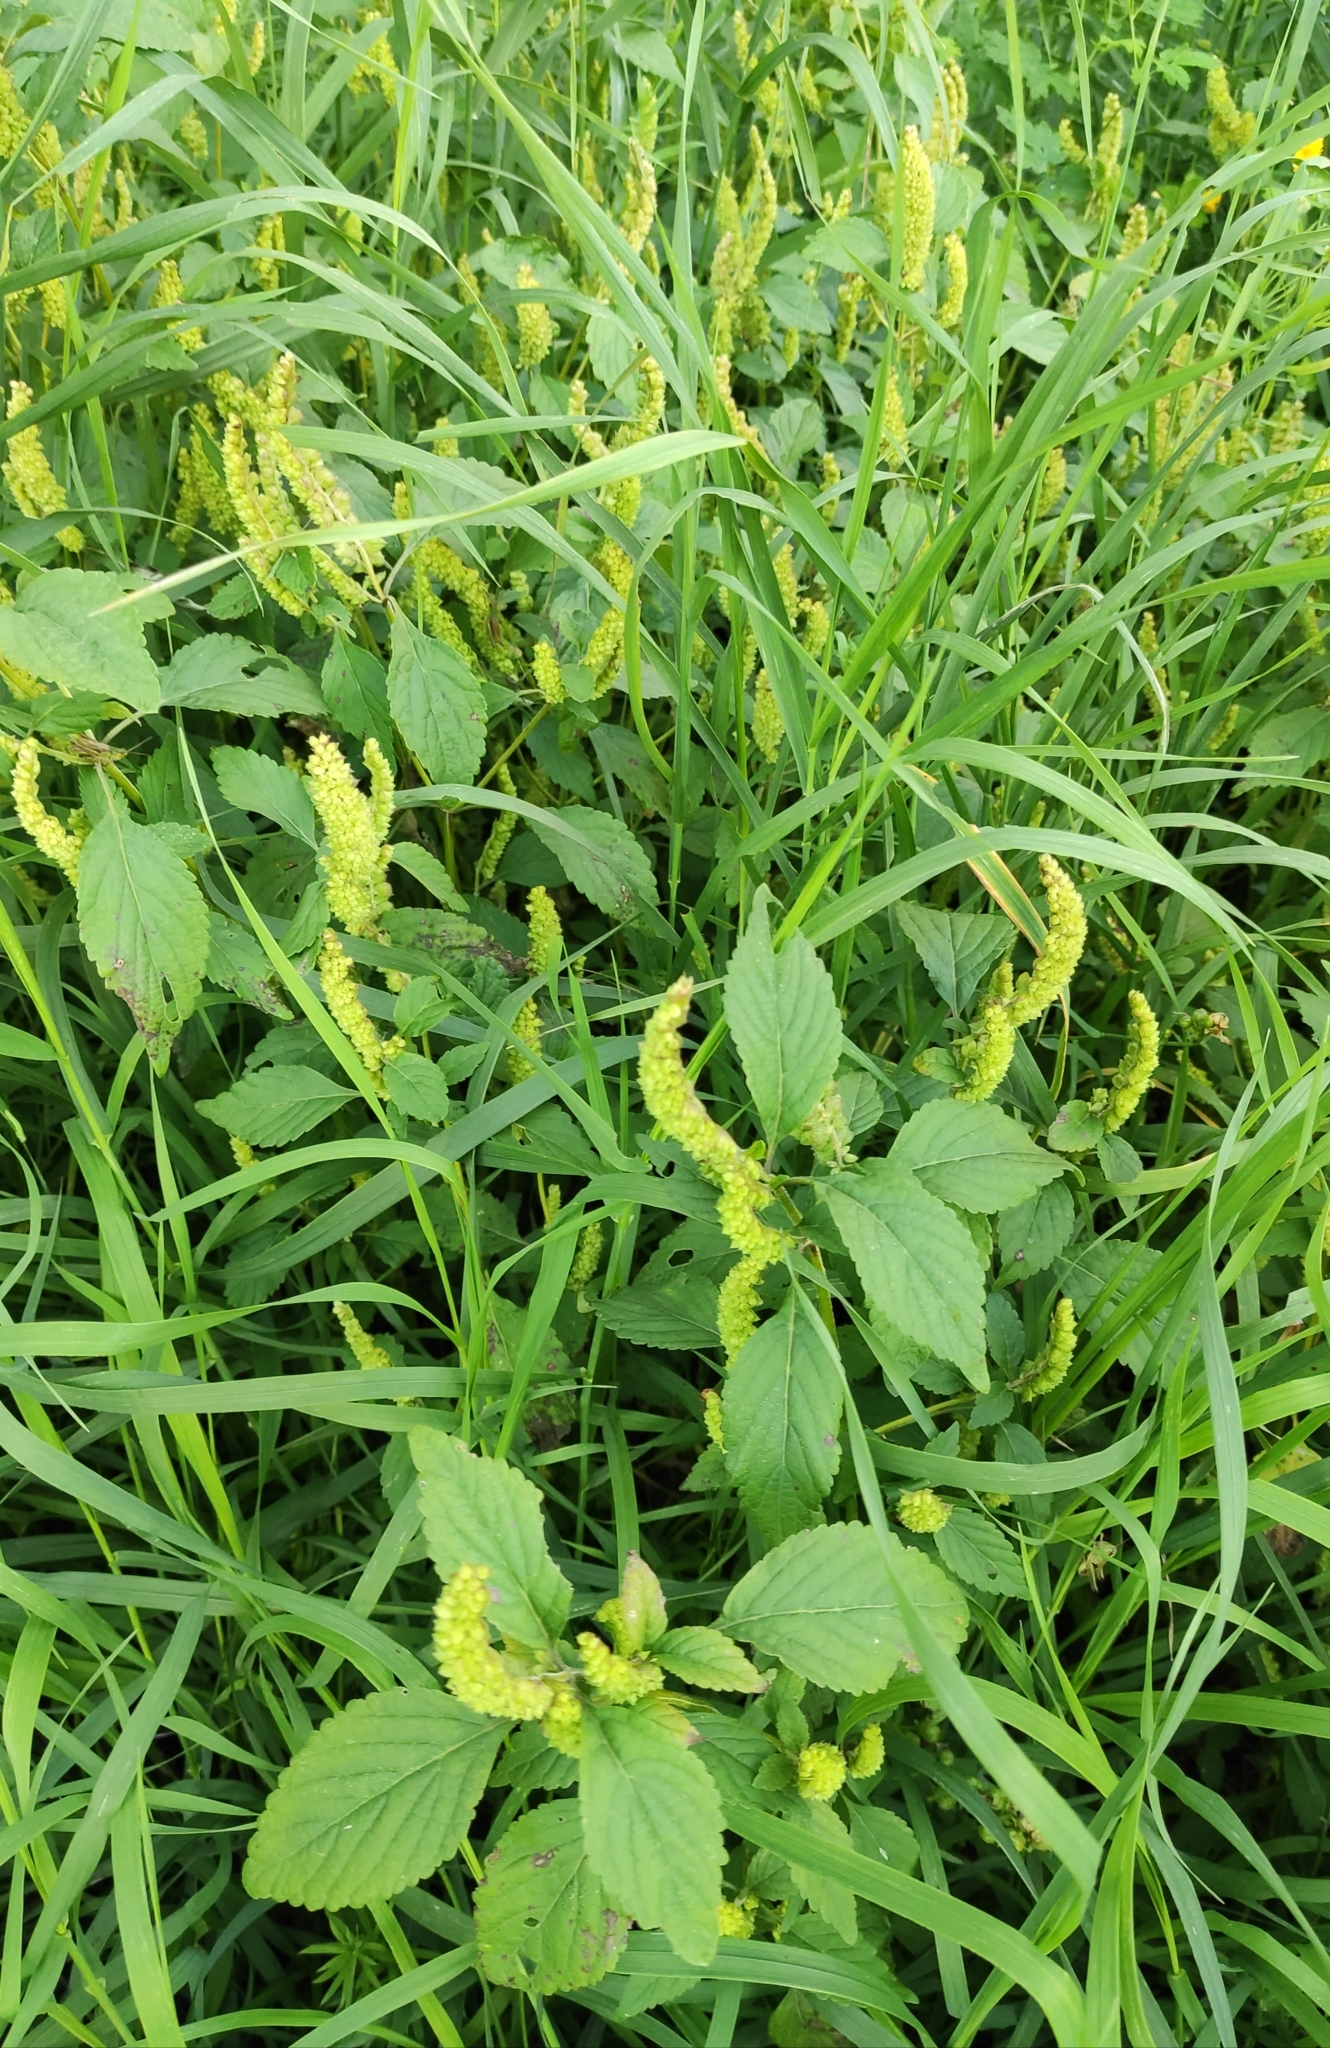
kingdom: Plantae
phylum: Tracheophyta
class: Magnoliopsida
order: Lamiales
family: Lamiaceae
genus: Elsholtzia
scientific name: Elsholtzia ciliata
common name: Ciliate elsholtzia
